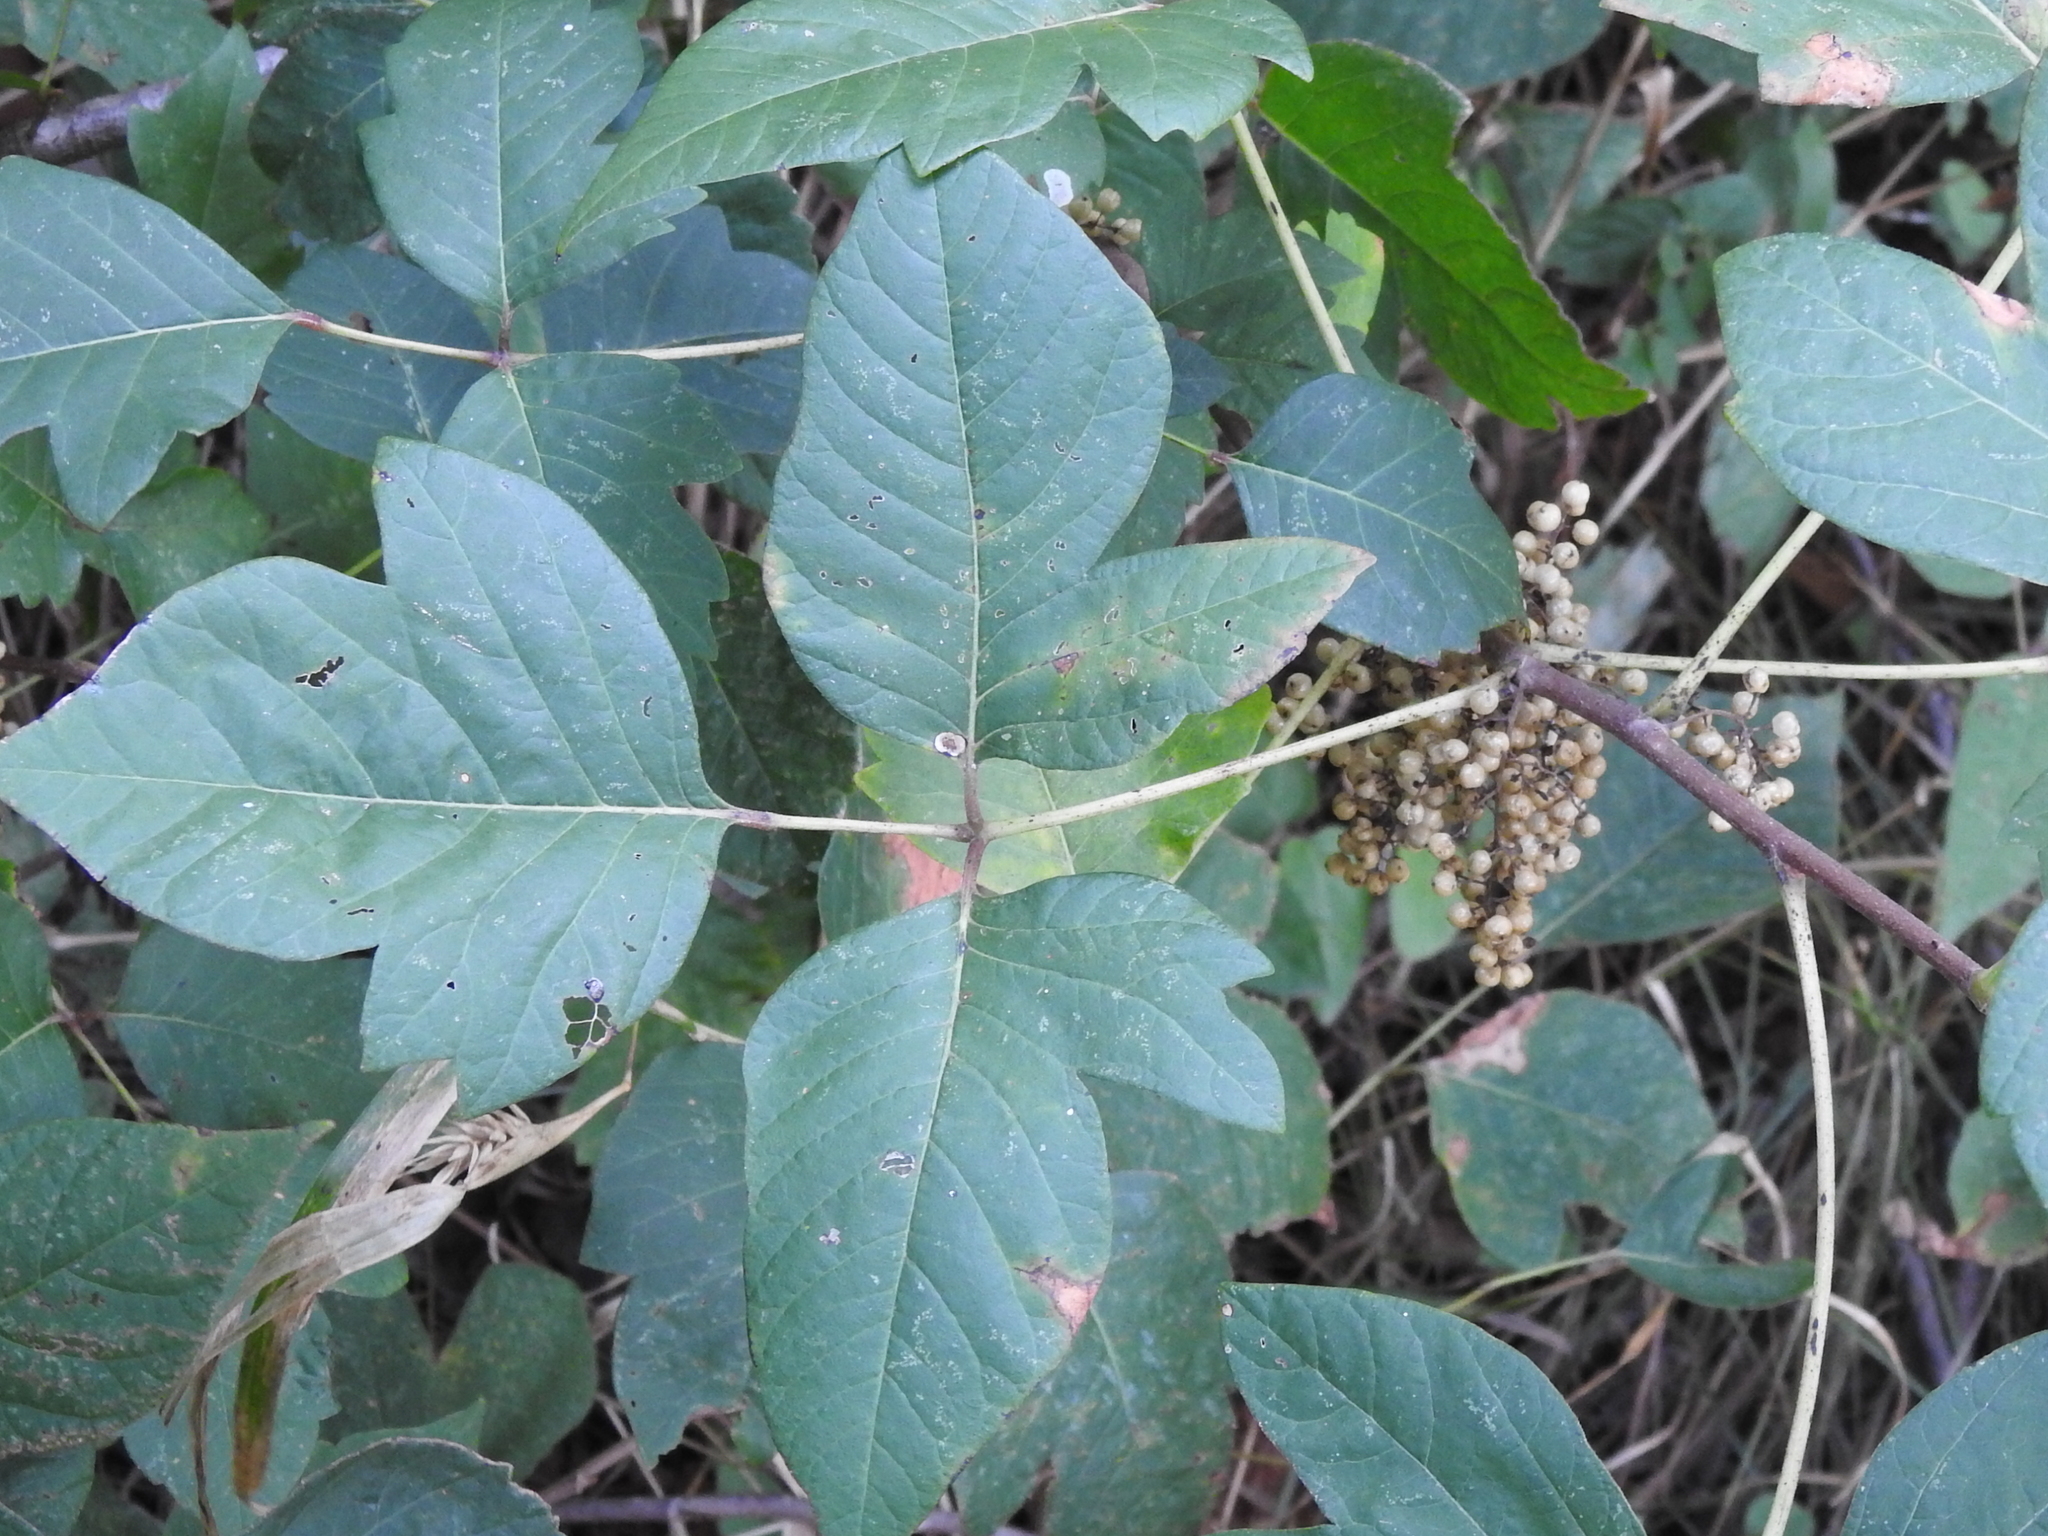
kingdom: Plantae
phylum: Tracheophyta
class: Magnoliopsida
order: Sapindales
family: Anacardiaceae
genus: Toxicodendron
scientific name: Toxicodendron radicans
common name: Poison ivy
